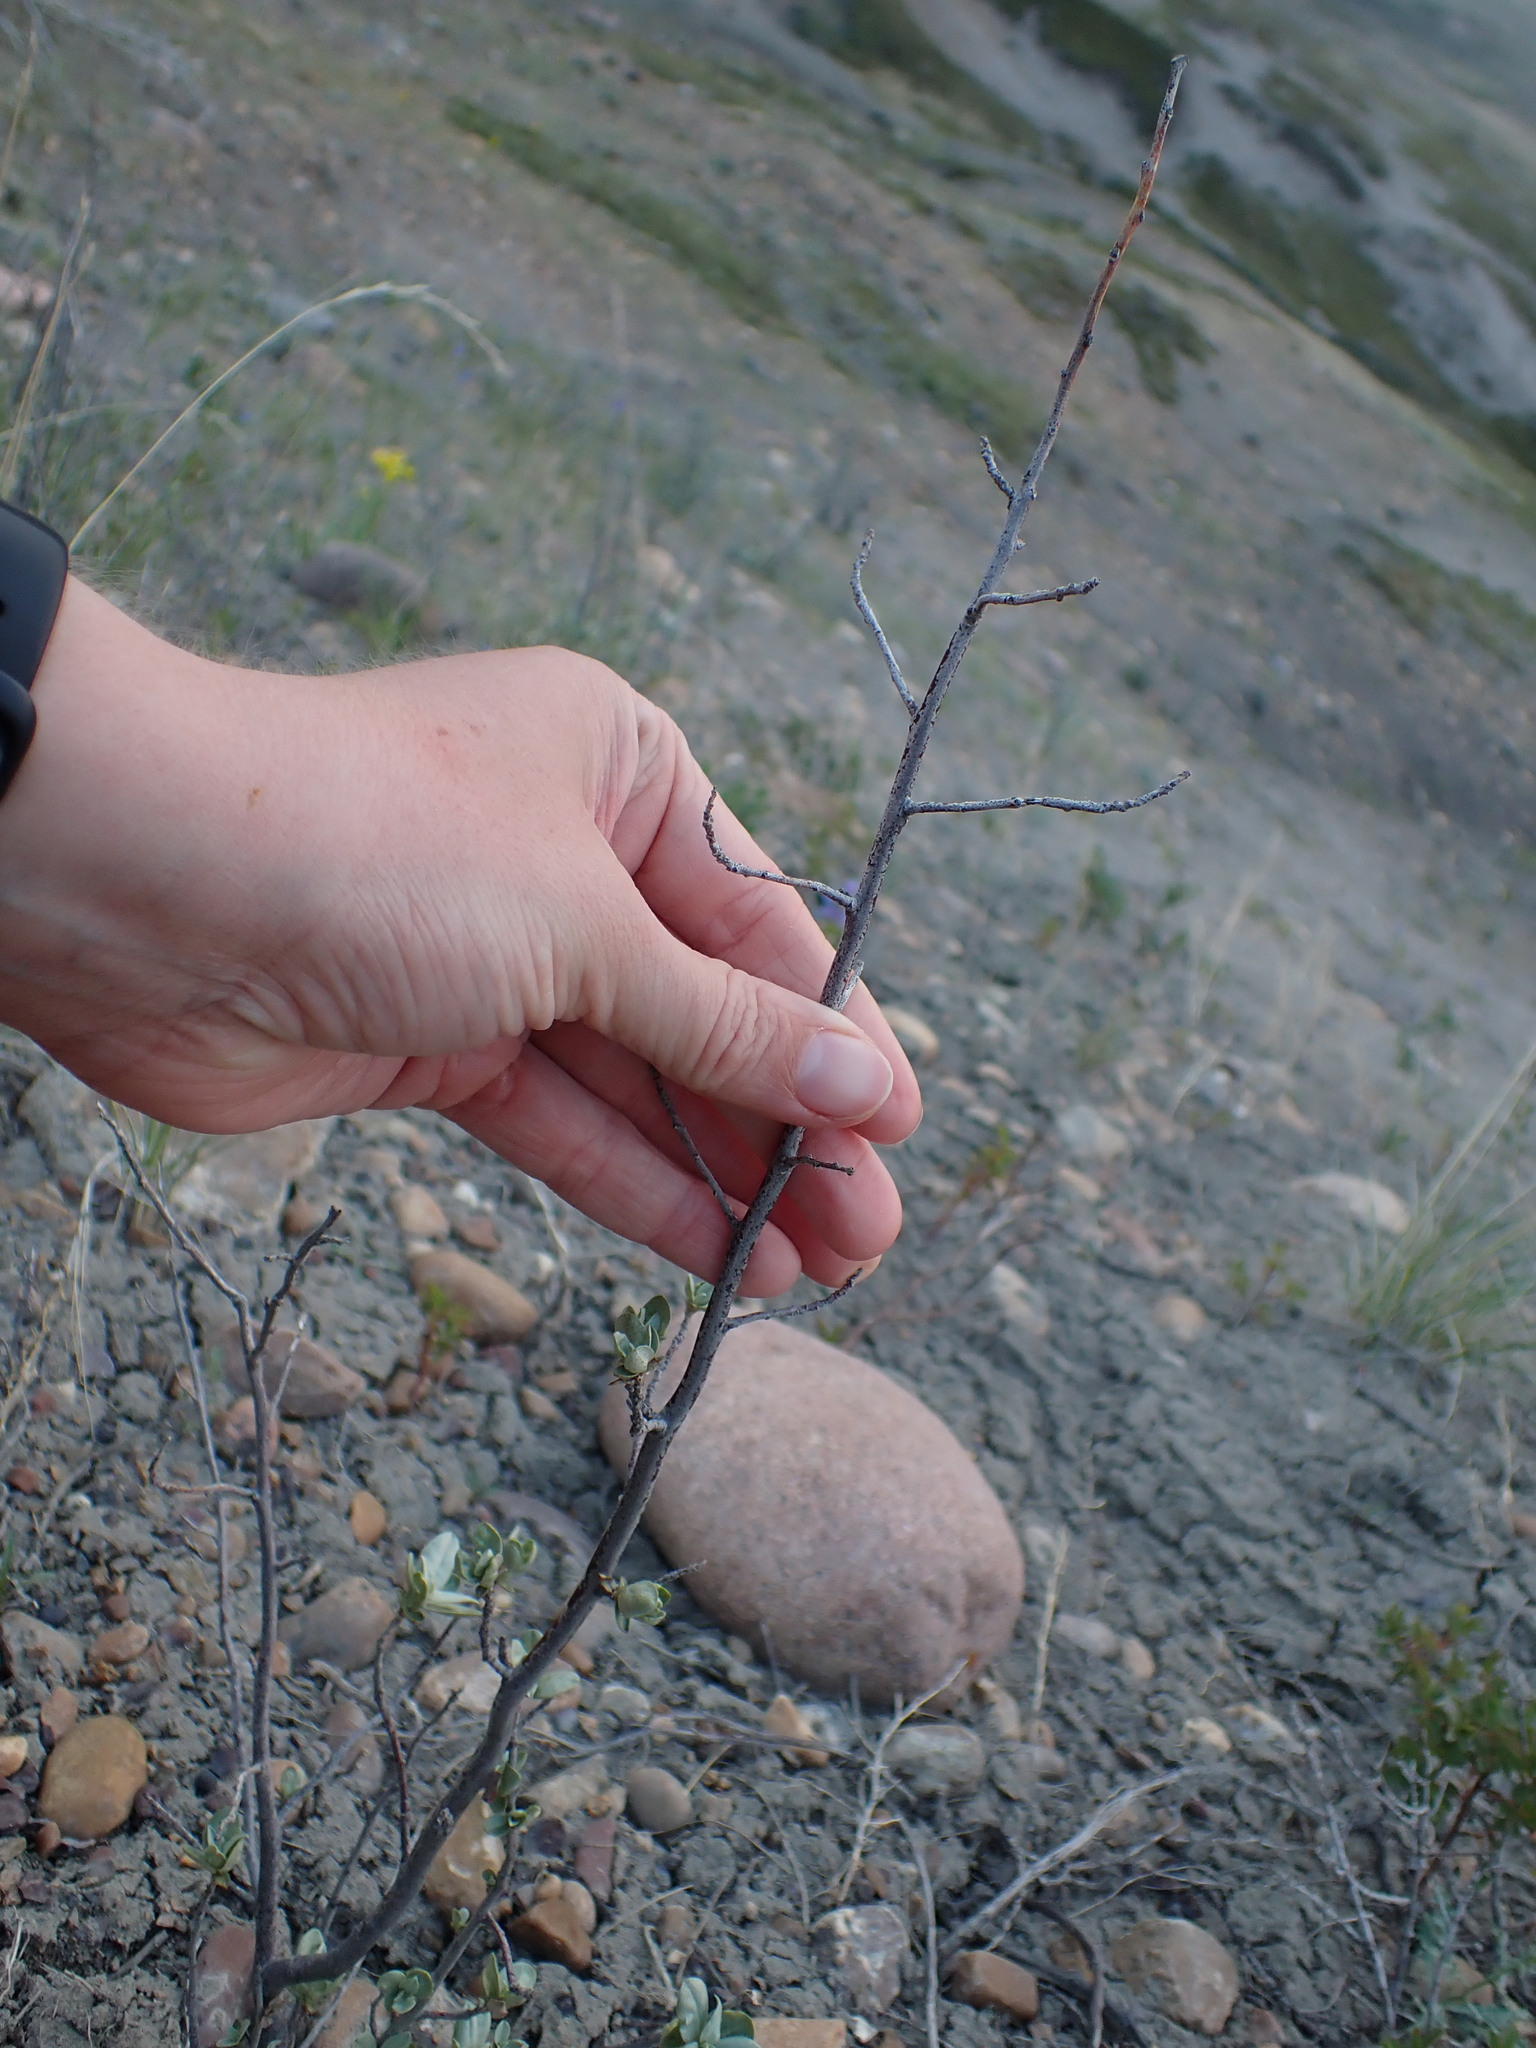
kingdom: Plantae
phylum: Tracheophyta
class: Magnoliopsida
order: Rosales
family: Elaeagnaceae
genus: Elaeagnus
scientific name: Elaeagnus commutata
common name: Silverberry
